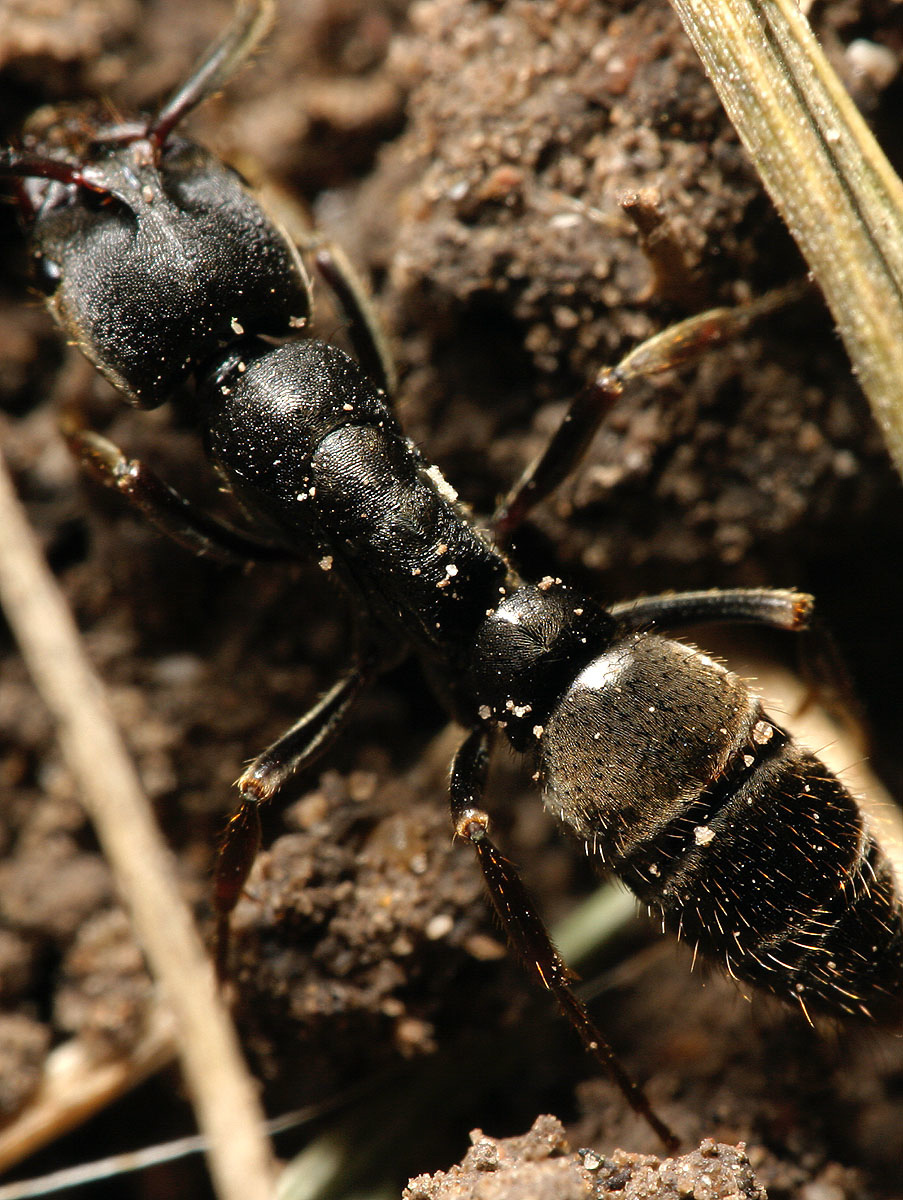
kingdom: Animalia
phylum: Arthropoda
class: Insecta
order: Hymenoptera
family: Formicidae
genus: Pachycondyla
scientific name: Pachycondyla harpax
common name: Ant
